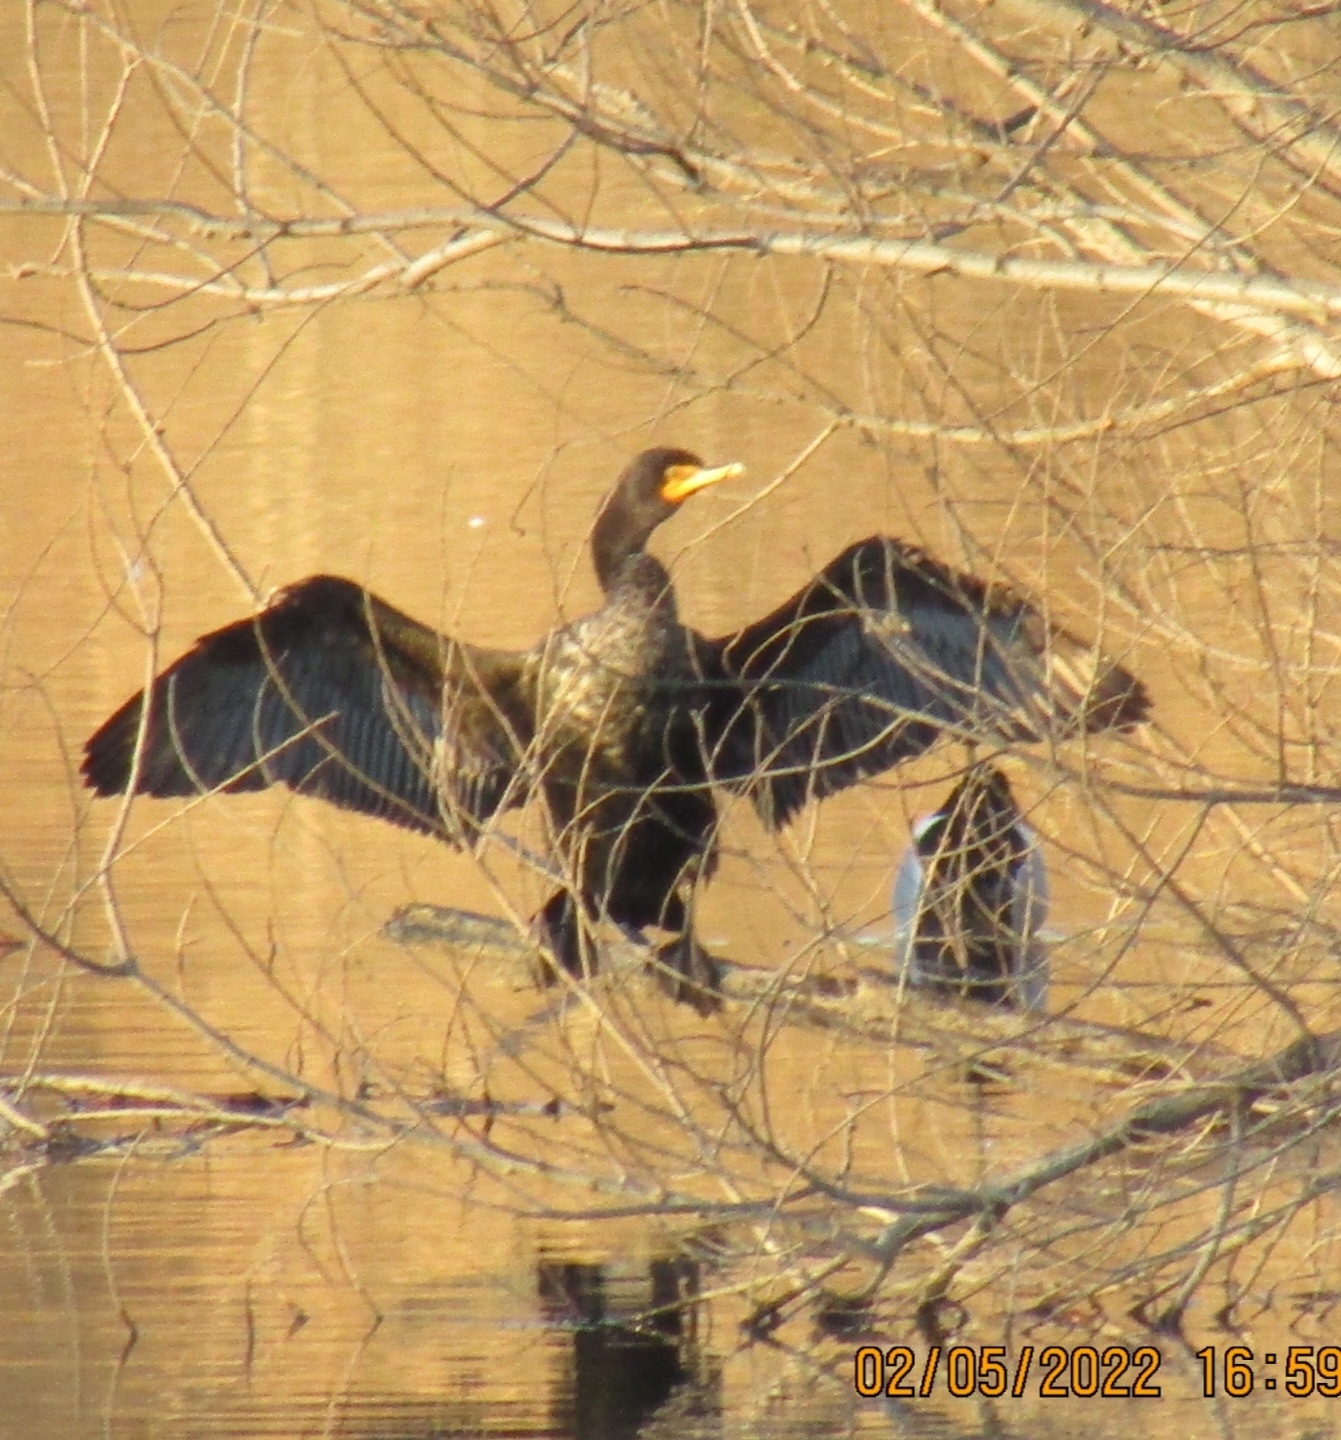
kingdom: Animalia
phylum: Chordata
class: Aves
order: Suliformes
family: Phalacrocoracidae
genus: Phalacrocorax
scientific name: Phalacrocorax auritus
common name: Double-crested cormorant
